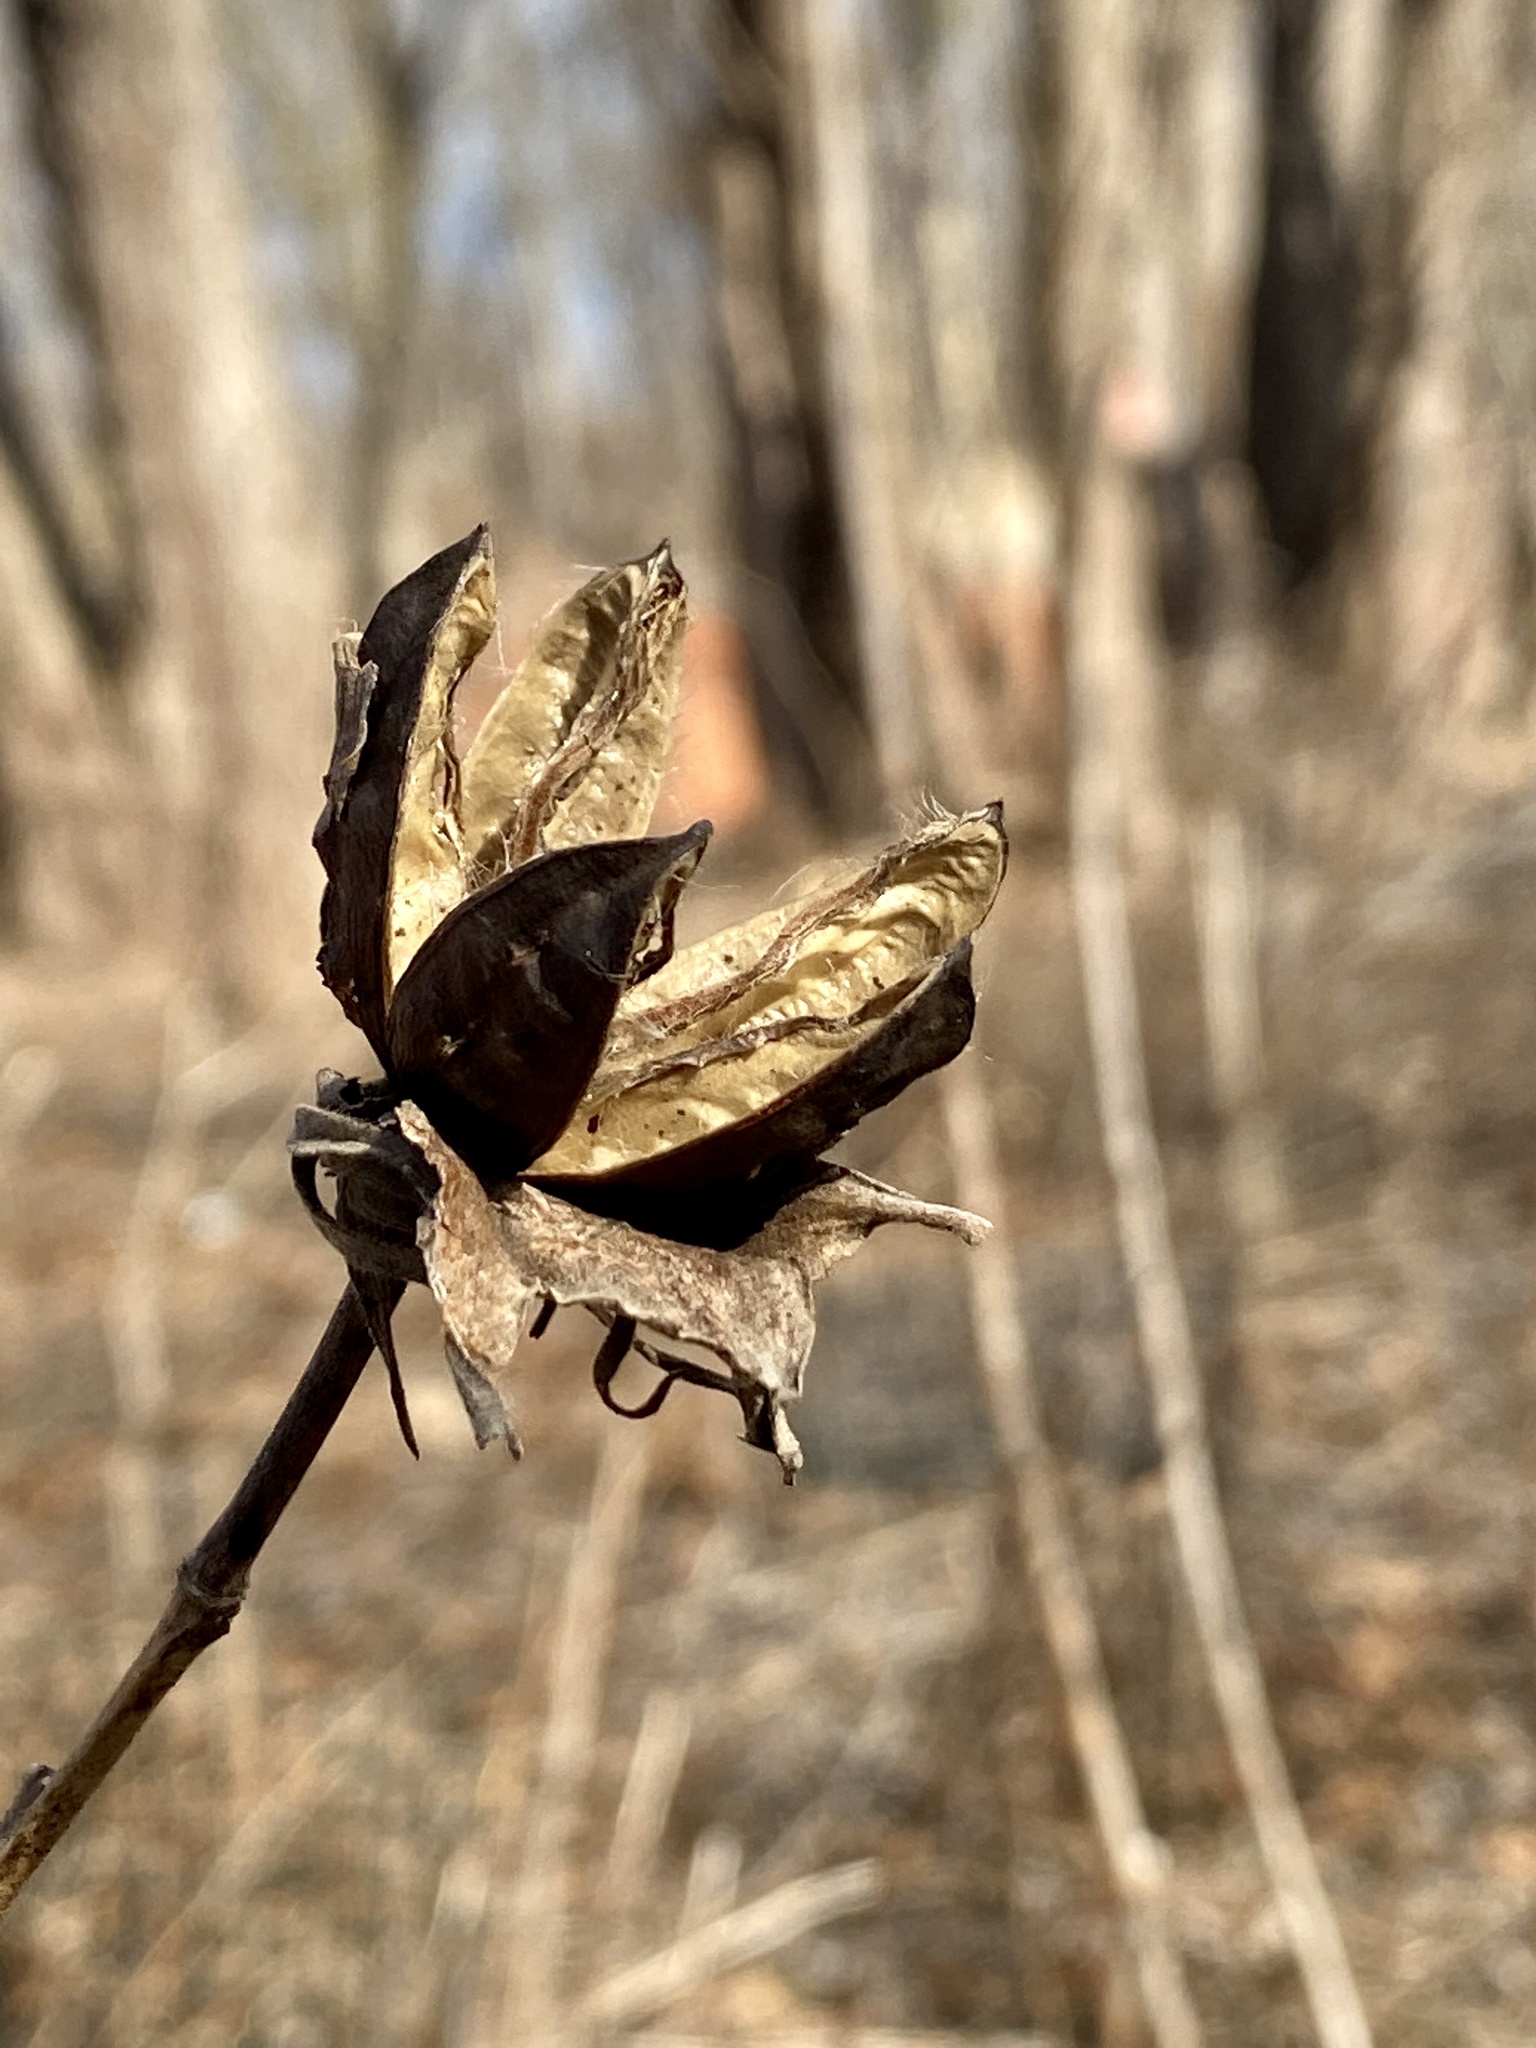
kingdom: Plantae
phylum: Tracheophyta
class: Magnoliopsida
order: Malvales
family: Malvaceae
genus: Hibiscus
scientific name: Hibiscus moscheutos
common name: Common rose-mallow
